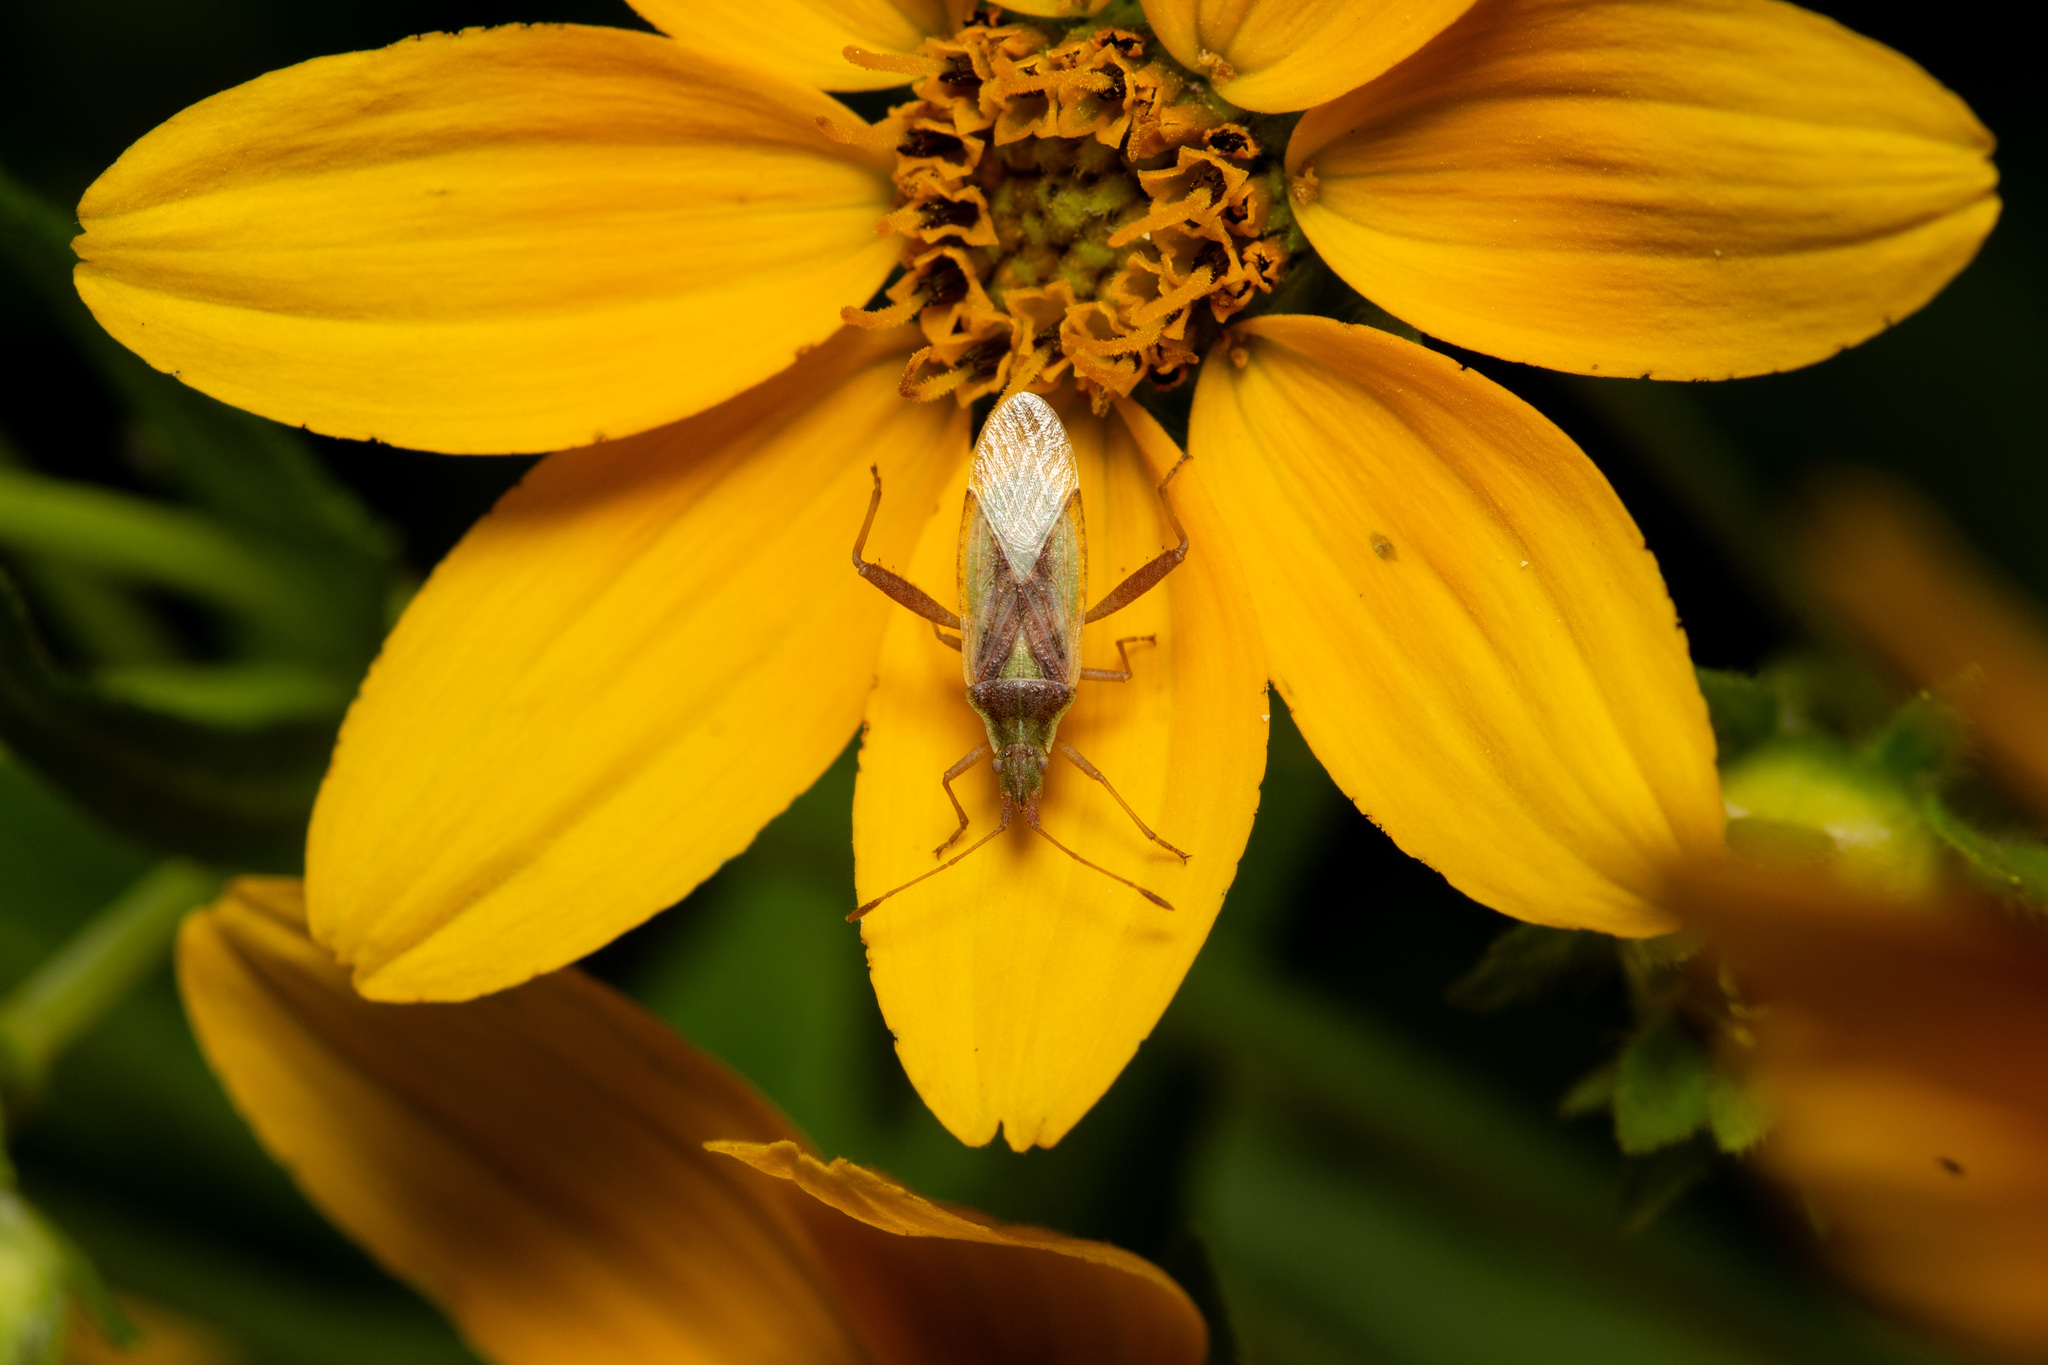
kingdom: Animalia
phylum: Arthropoda
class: Insecta
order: Hemiptera
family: Rhopalidae
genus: Harmostes
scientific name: Harmostes reflexulus
